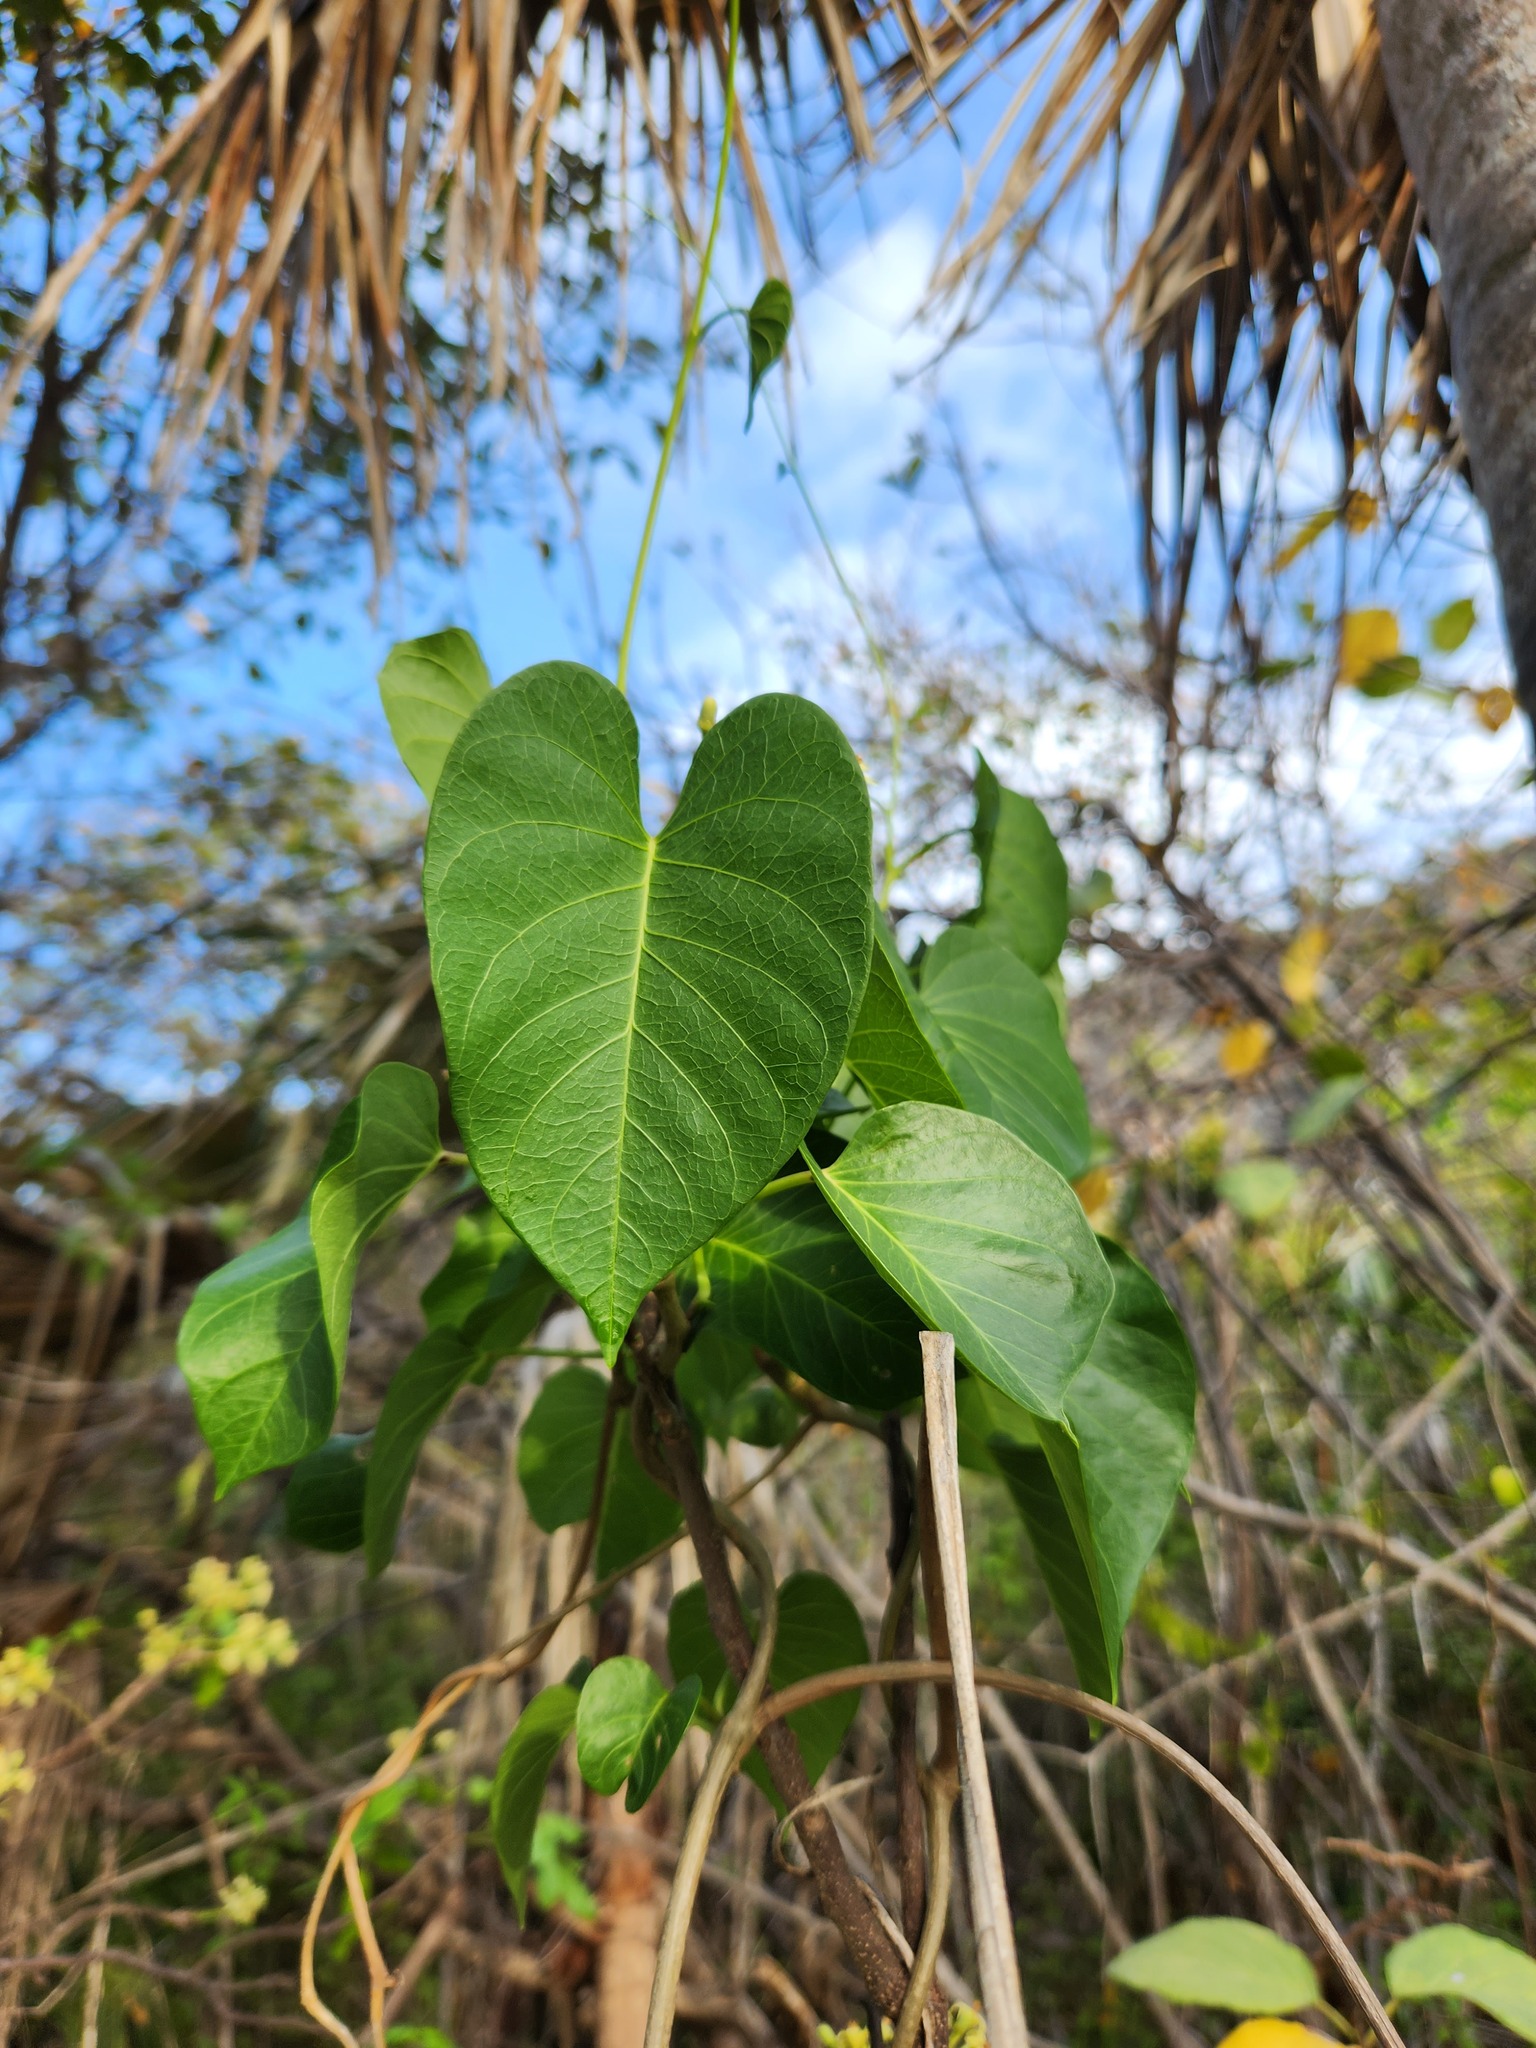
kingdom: Plantae
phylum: Tracheophyta
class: Magnoliopsida
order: Solanales
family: Convolvulaceae
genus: Ipomoea
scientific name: Ipomoea violacea
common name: Beach moonflower
